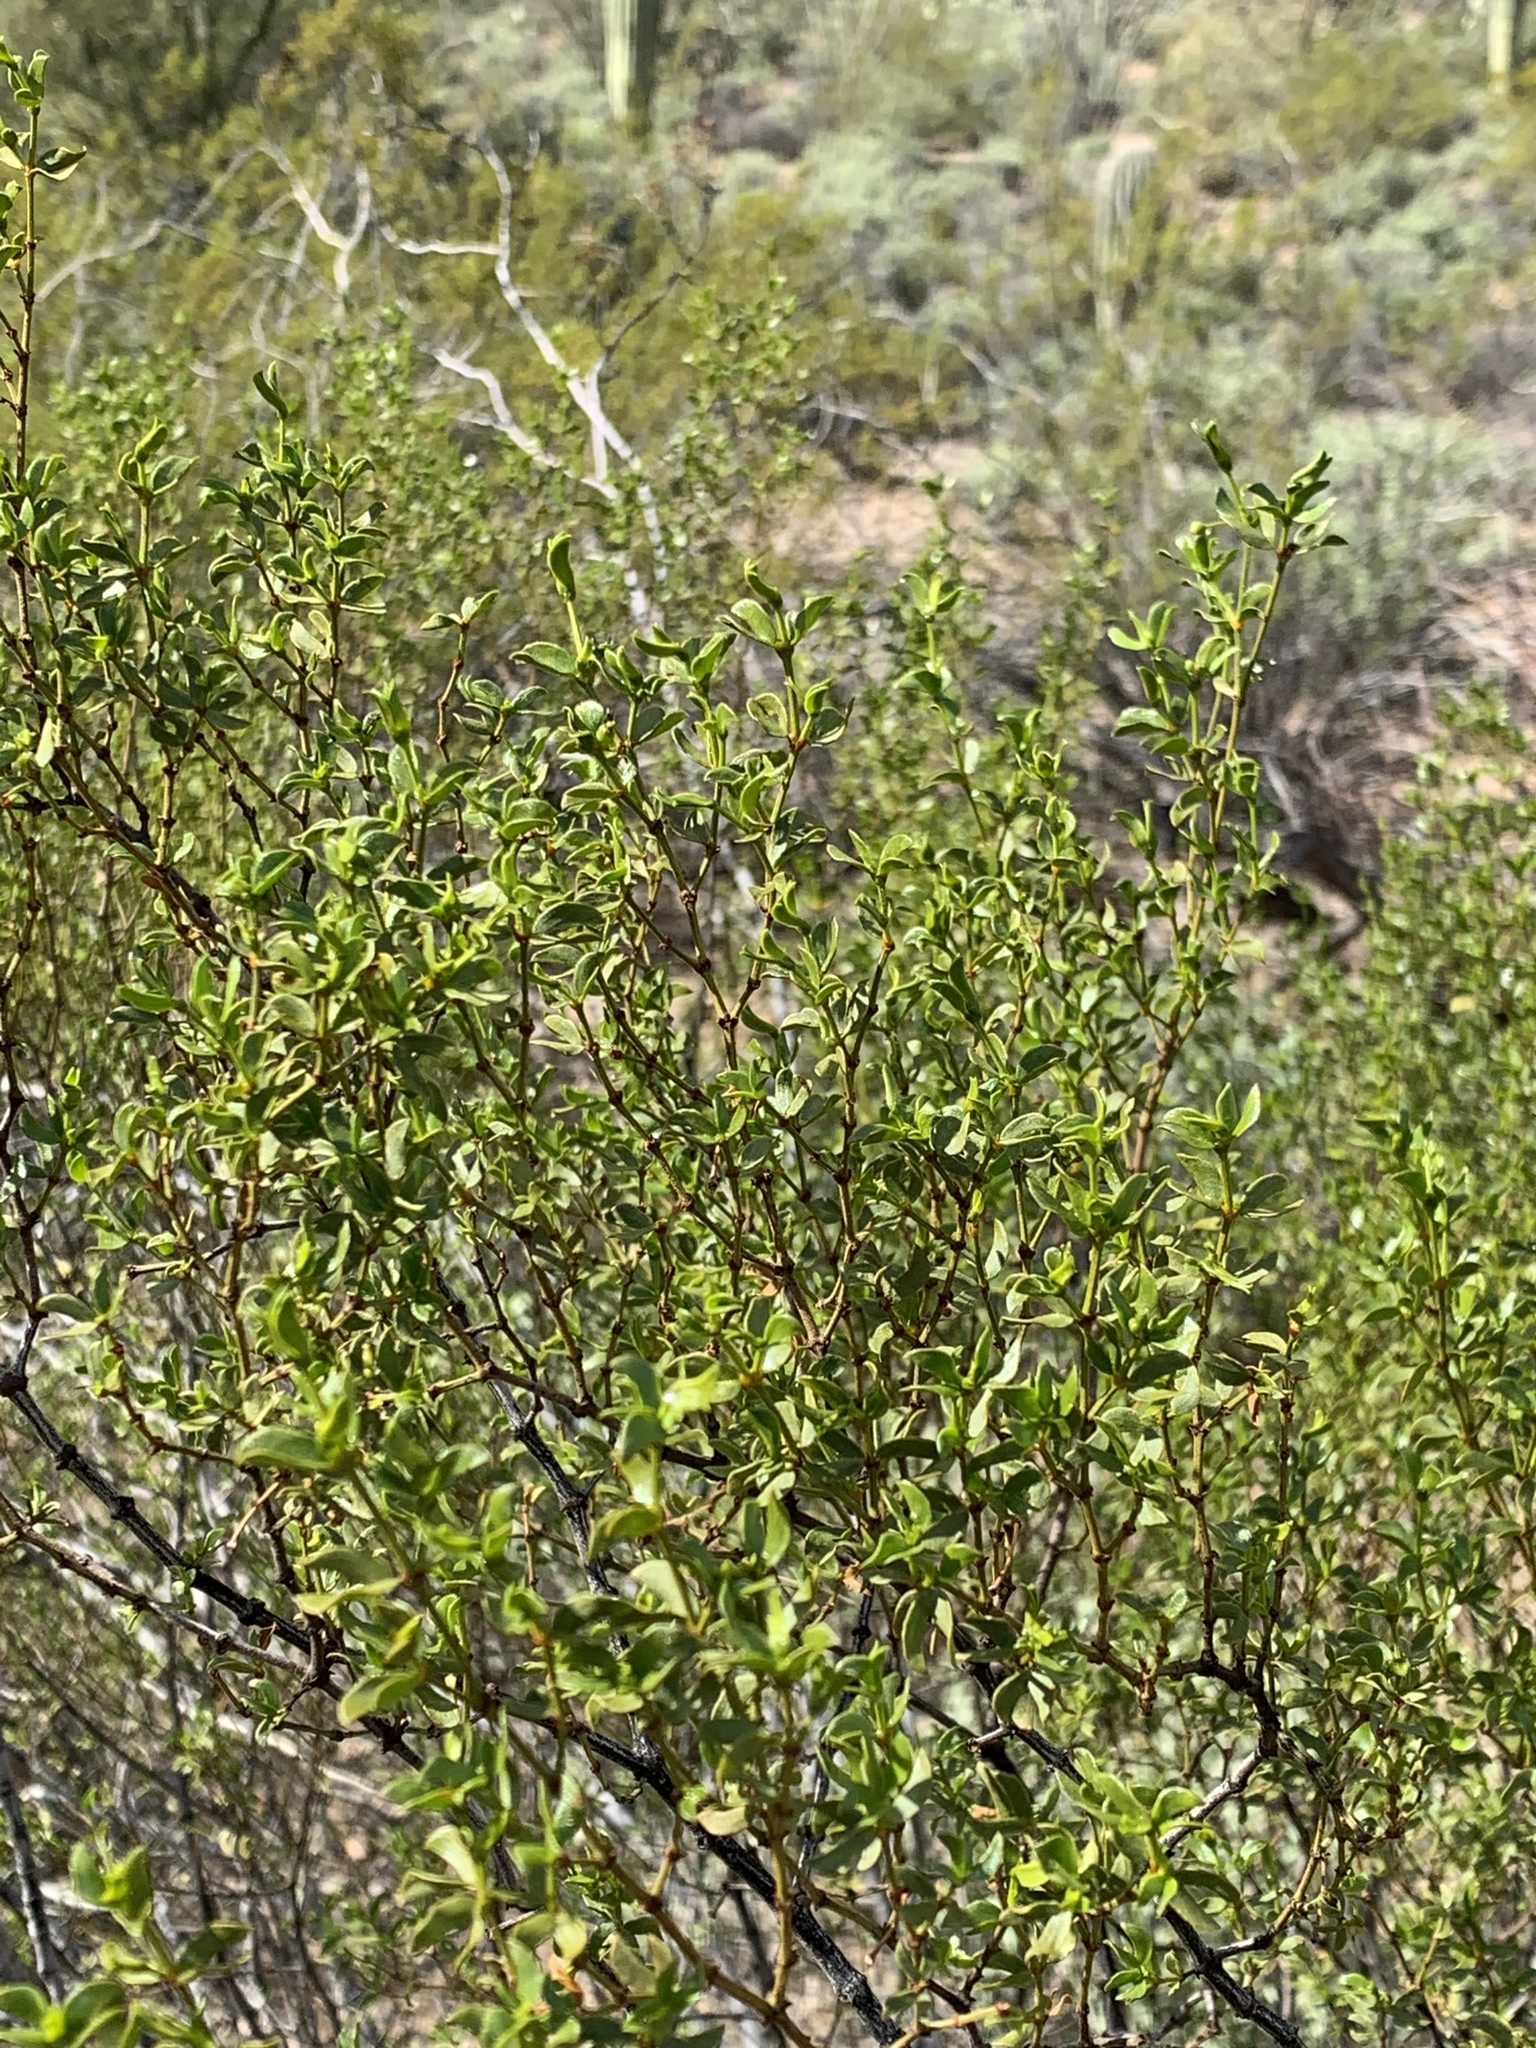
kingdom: Plantae
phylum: Tracheophyta
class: Magnoliopsida
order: Zygophyllales
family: Zygophyllaceae
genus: Larrea
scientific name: Larrea tridentata
